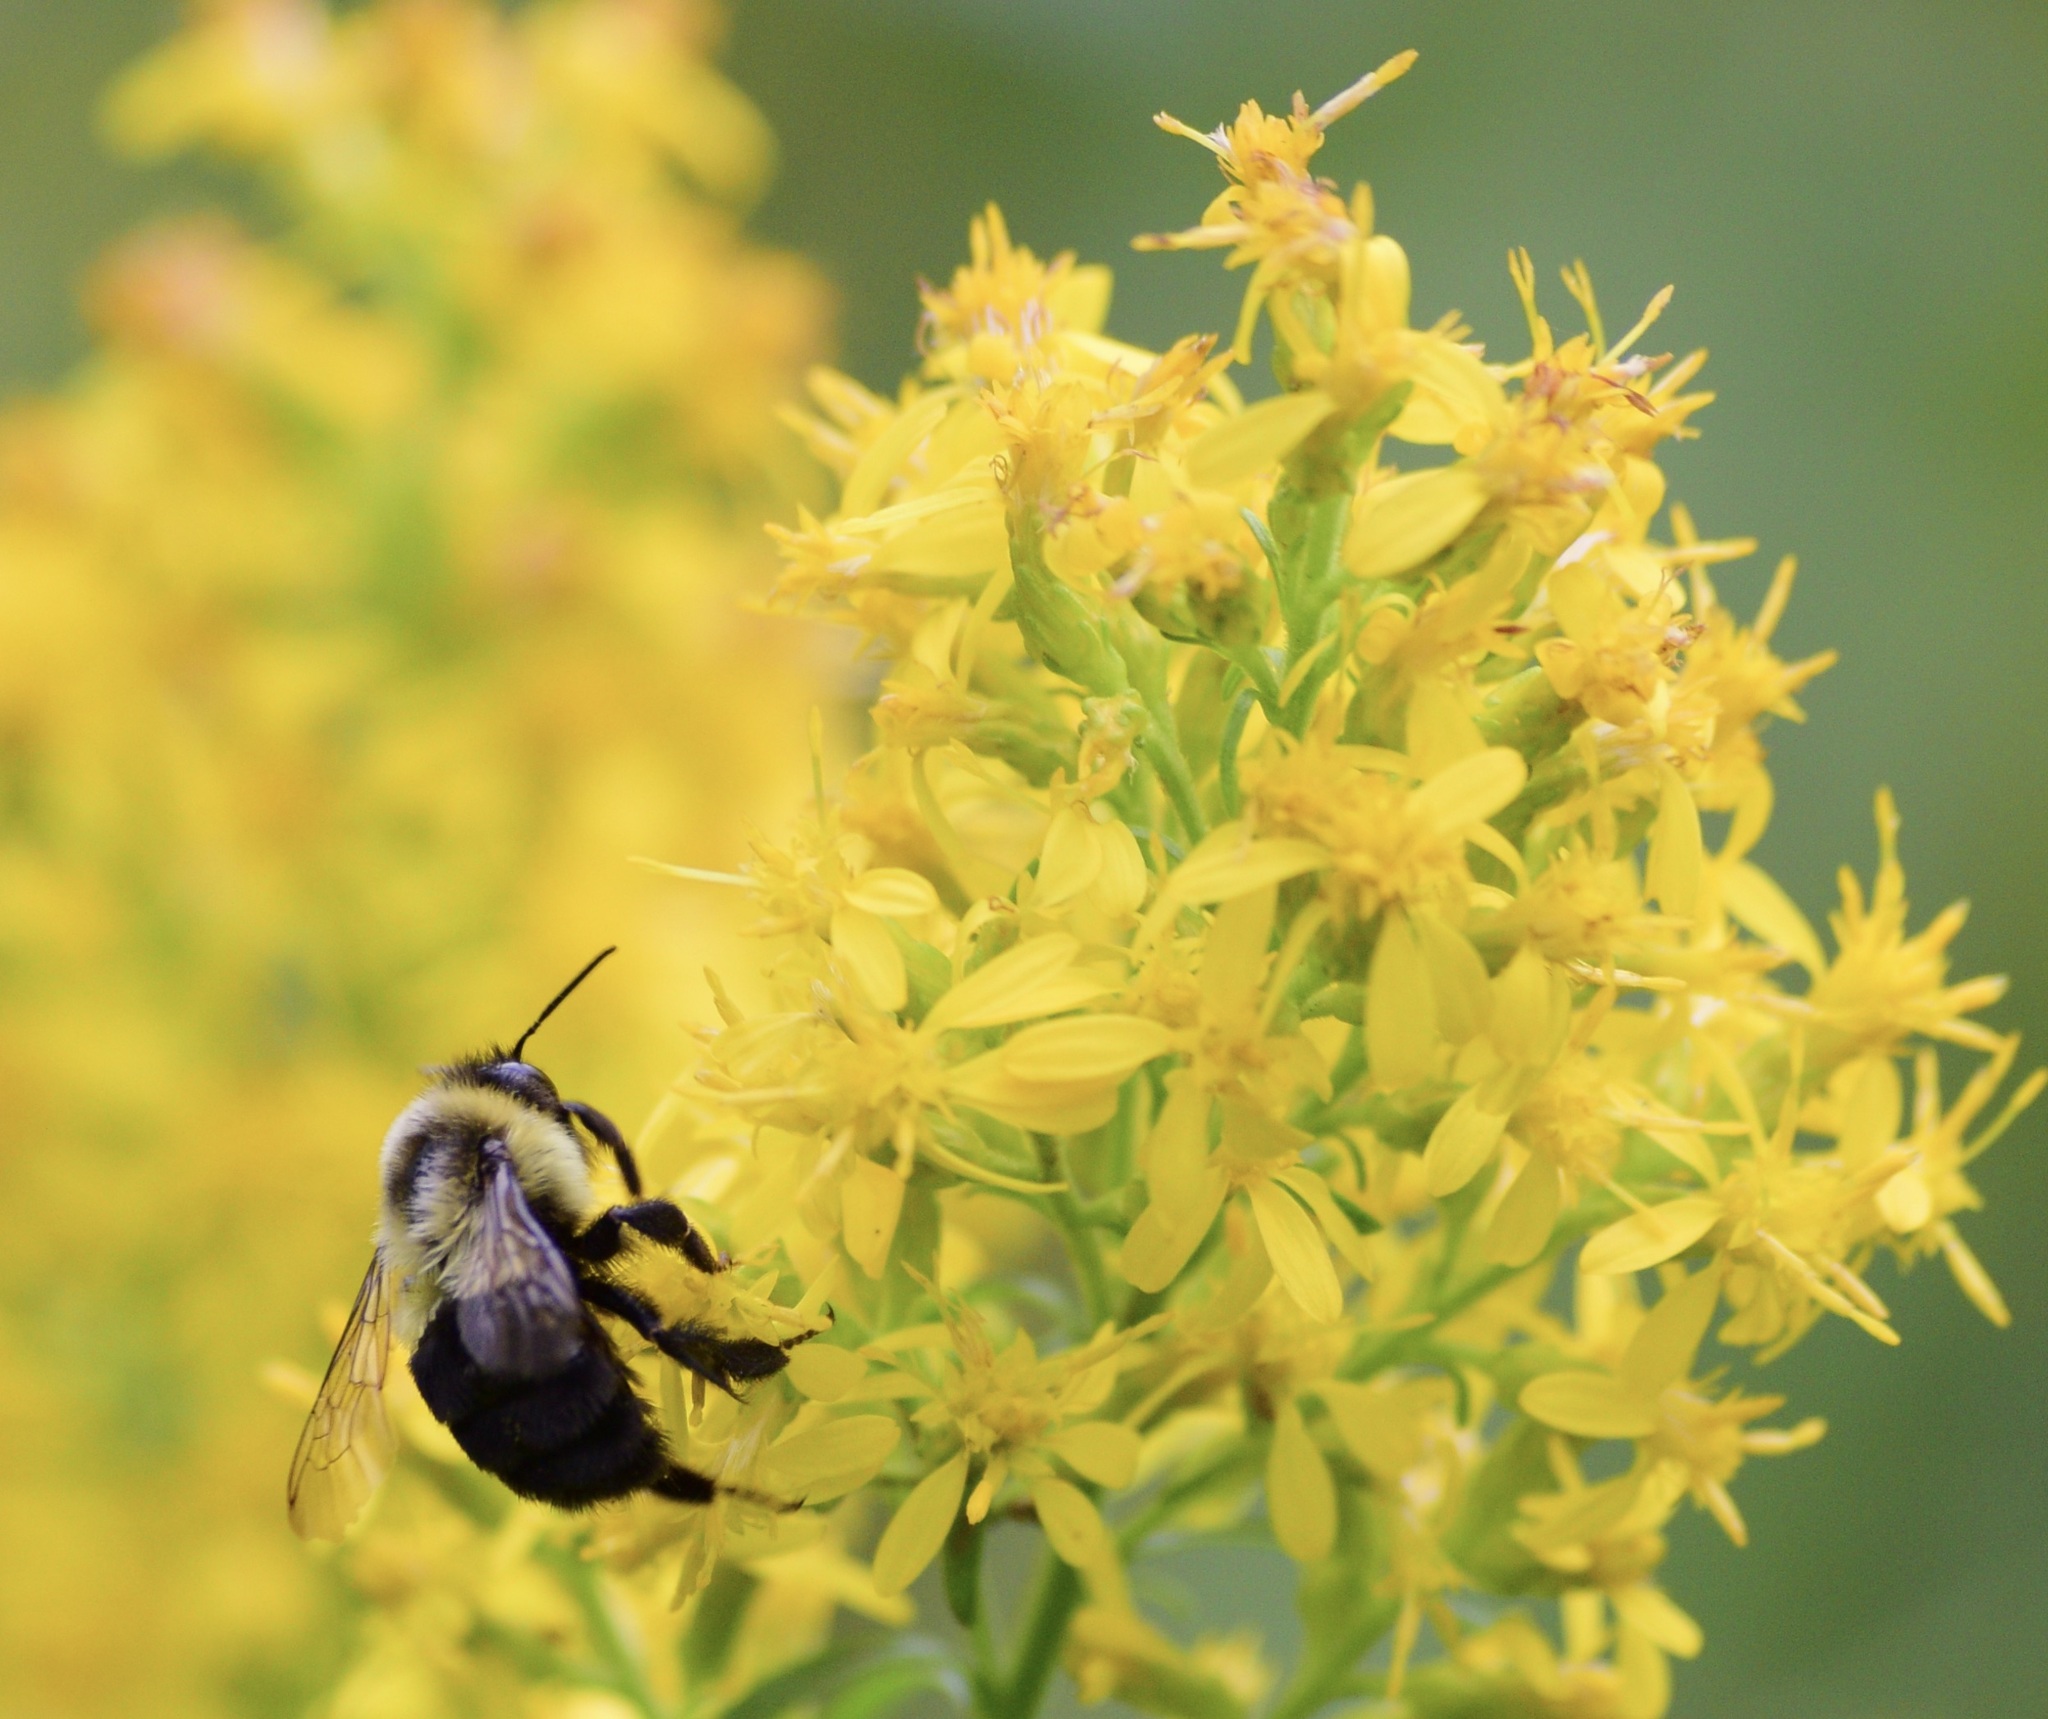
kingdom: Animalia
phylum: Arthropoda
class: Insecta
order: Hymenoptera
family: Apidae
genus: Bombus
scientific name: Bombus impatiens
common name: Common eastern bumble bee
